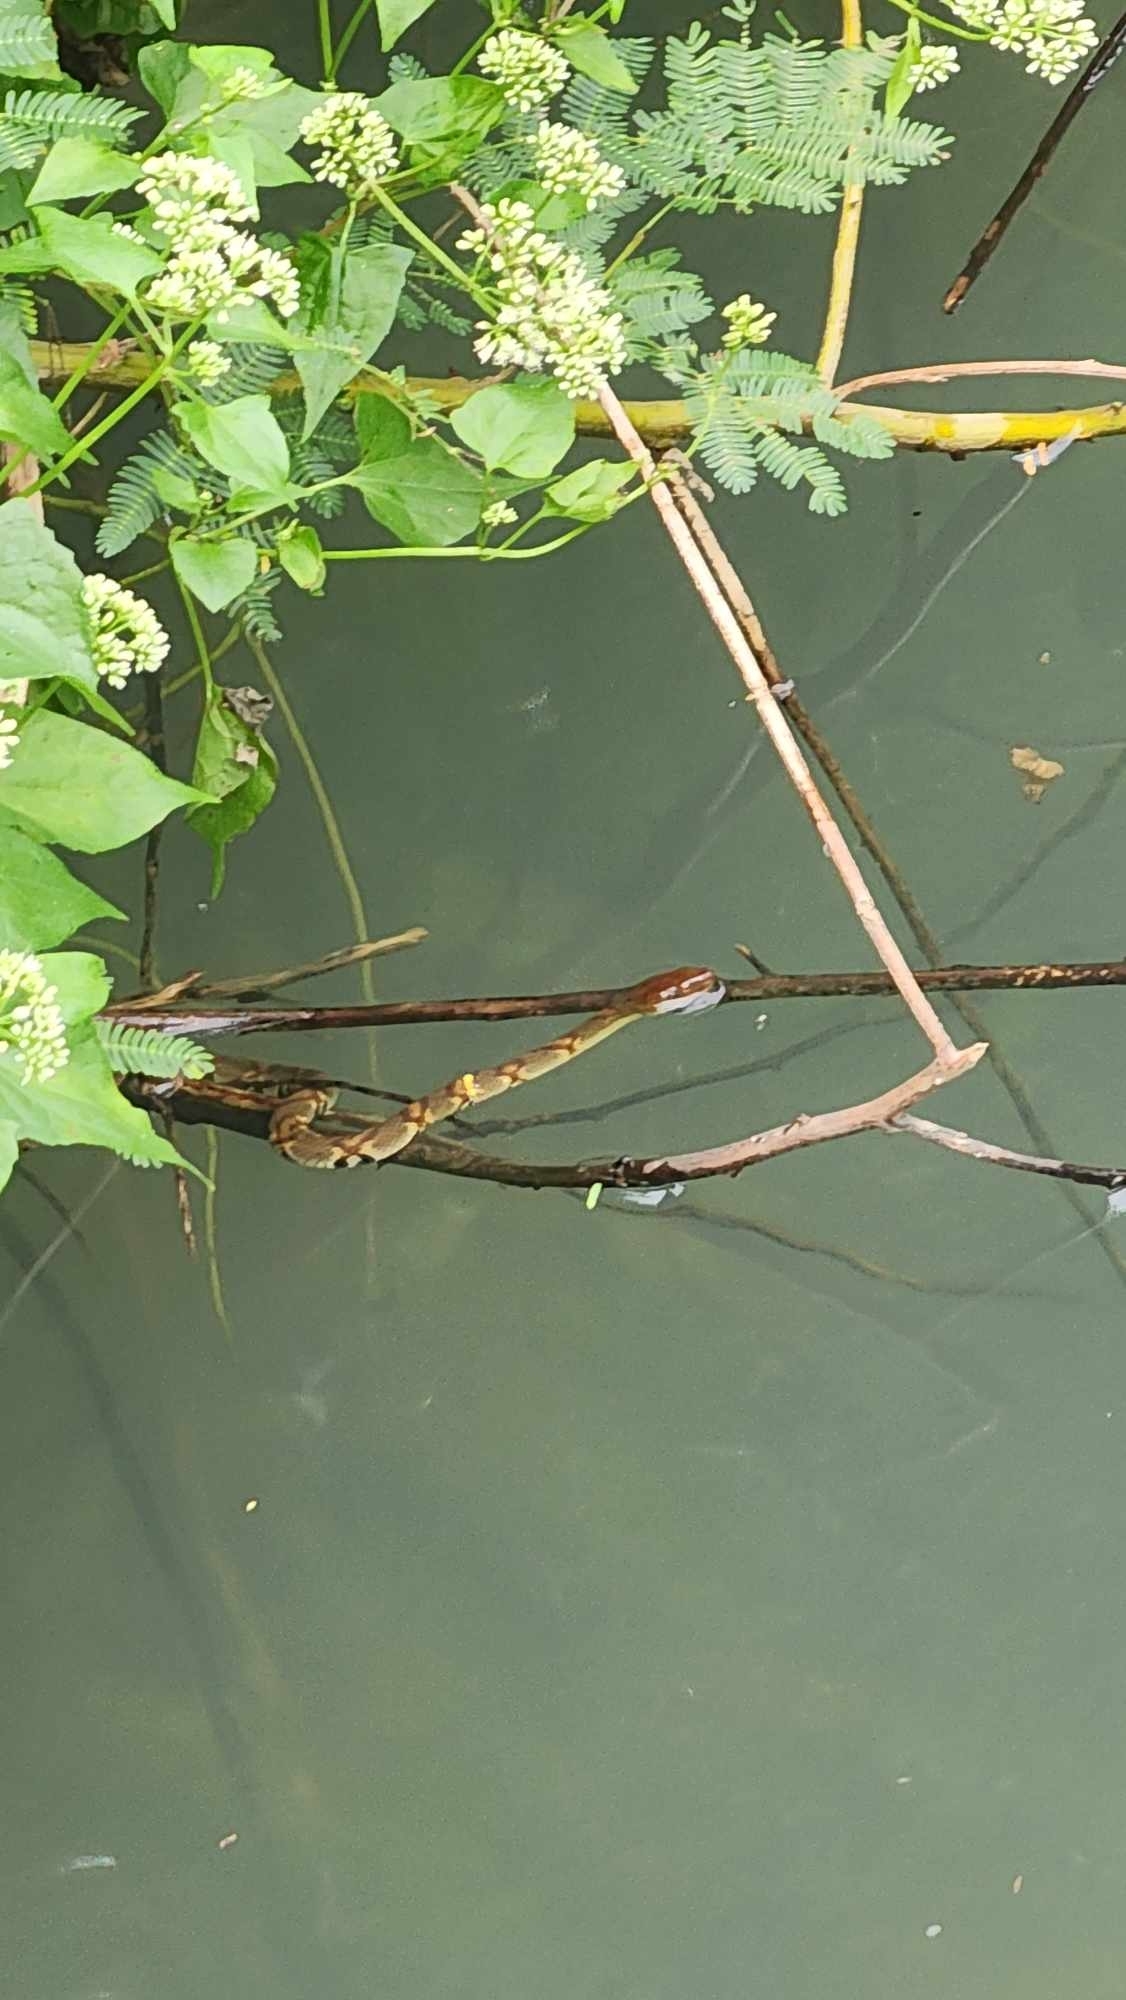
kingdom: Animalia
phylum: Chordata
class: Squamata
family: Colubridae
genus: Trimerodytes
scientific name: Trimerodytes aequifasciatus
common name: Asiatic water snake
